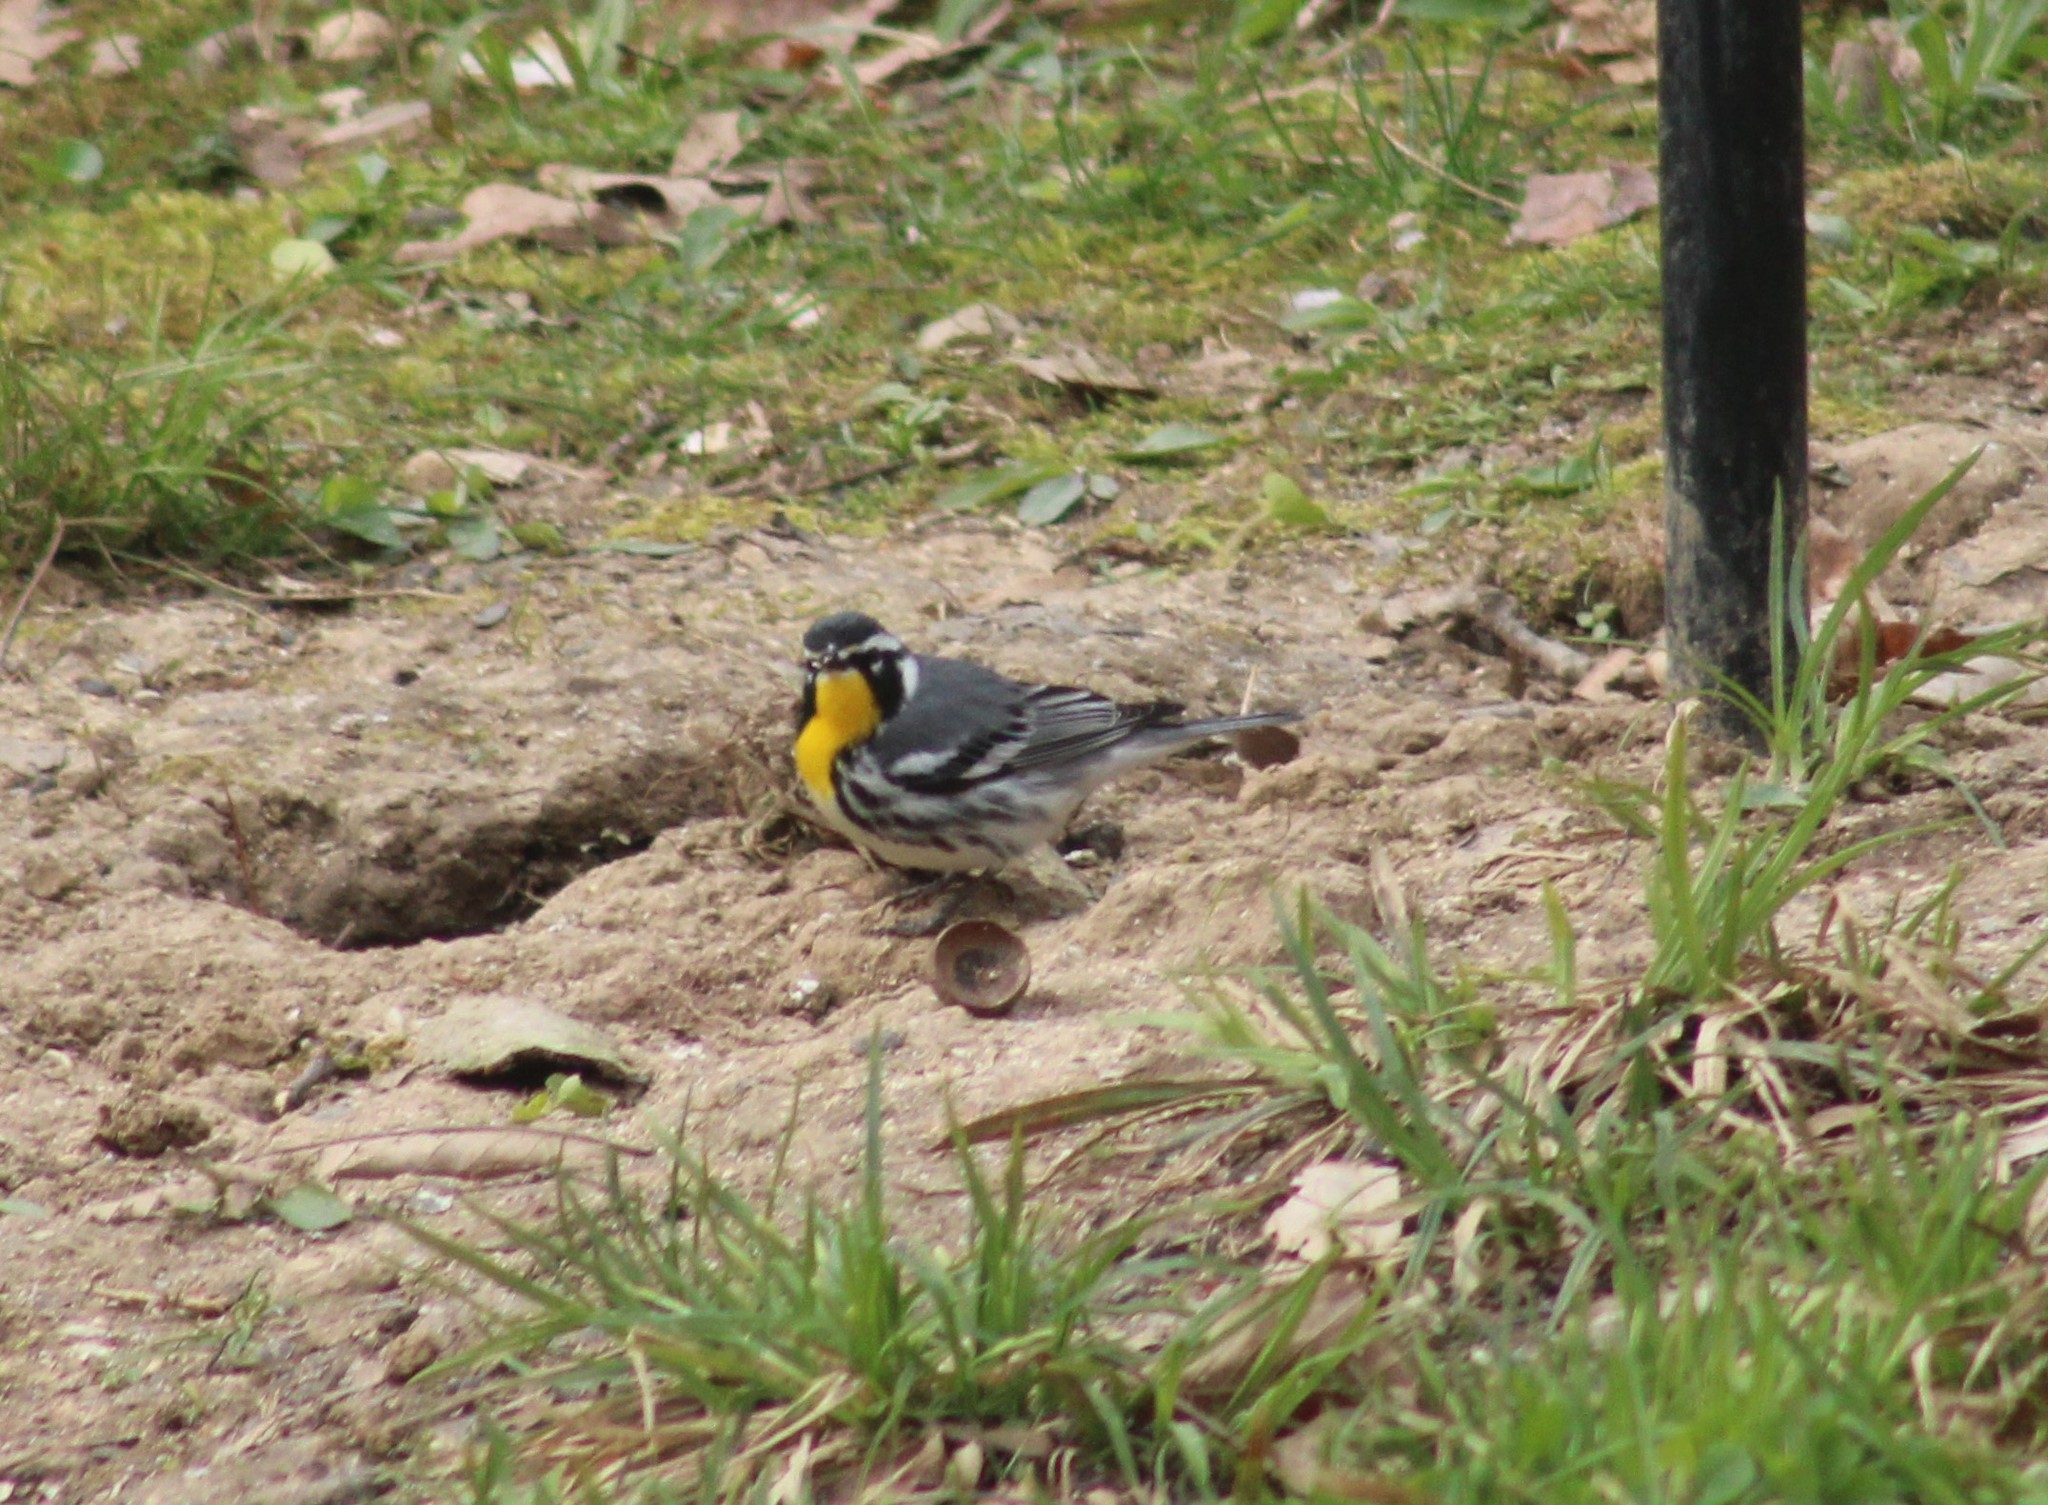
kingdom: Animalia
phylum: Chordata
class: Aves
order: Passeriformes
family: Parulidae
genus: Setophaga
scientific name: Setophaga dominica
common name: Yellow-throated warbler
